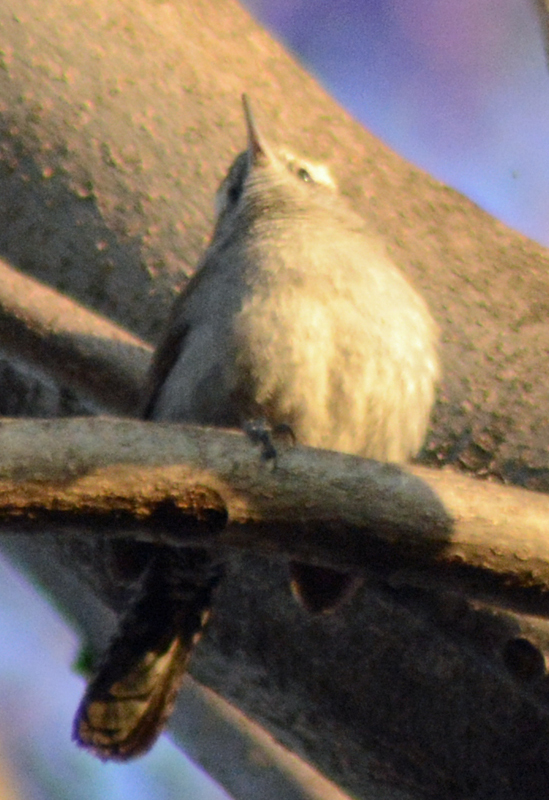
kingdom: Animalia
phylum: Chordata
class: Aves
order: Passeriformes
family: Troglodytidae
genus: Thryomanes
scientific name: Thryomanes bewickii
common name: Bewick's wren
